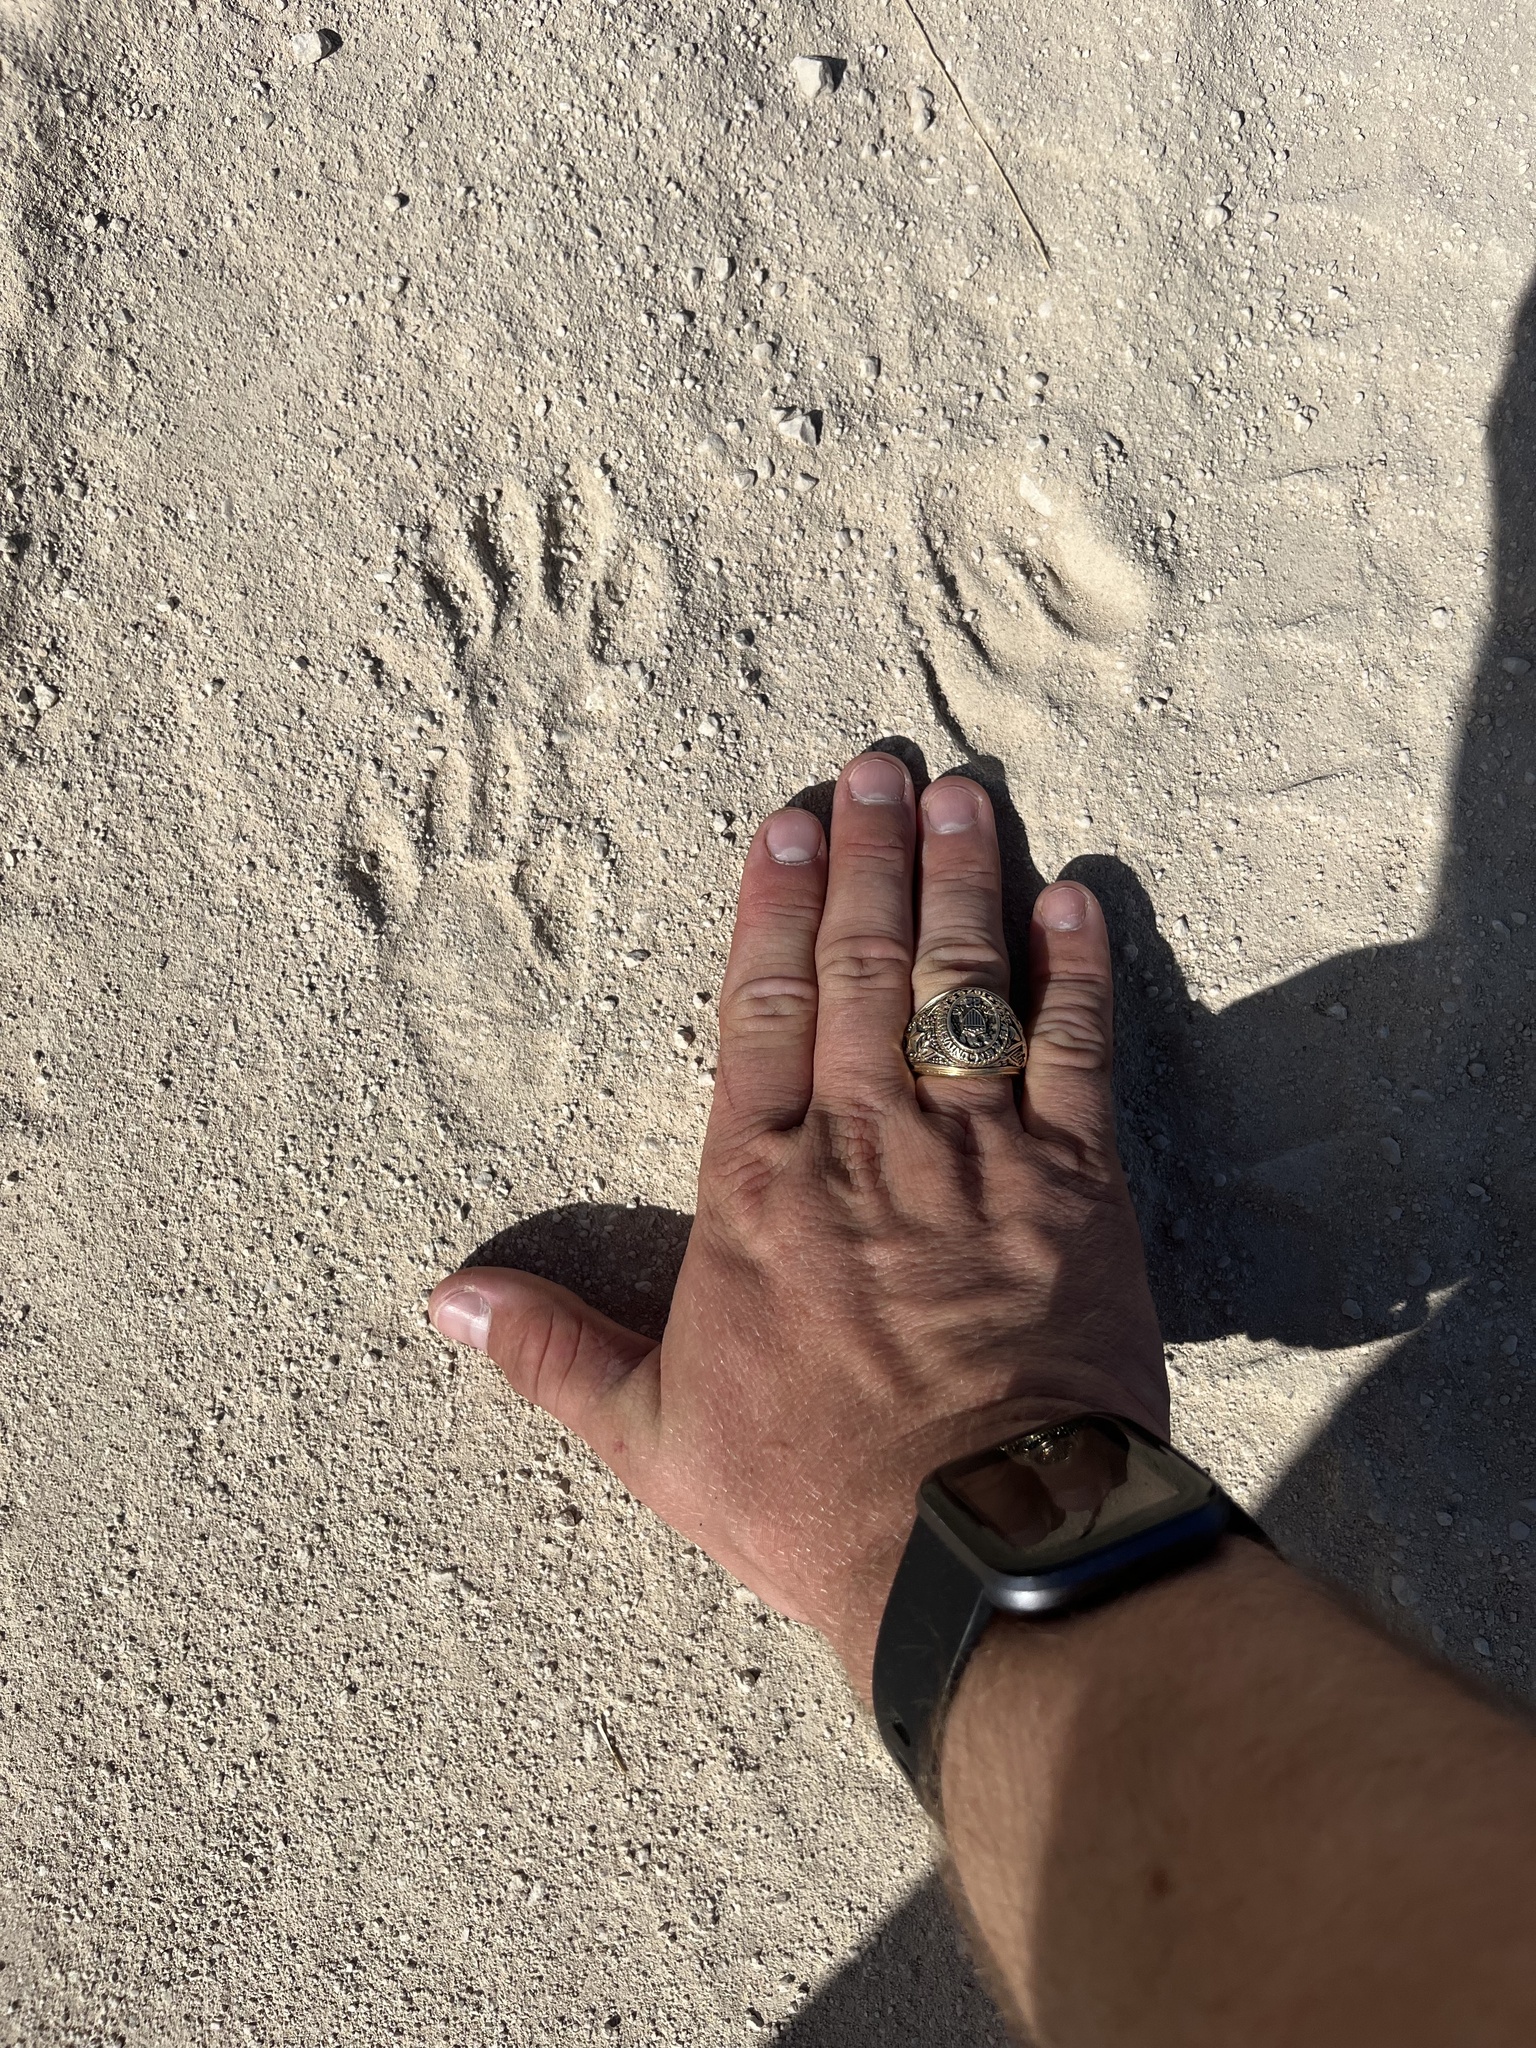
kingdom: Animalia
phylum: Chordata
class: Mammalia
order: Carnivora
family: Procyonidae
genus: Procyon
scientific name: Procyon lotor
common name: Raccoon
